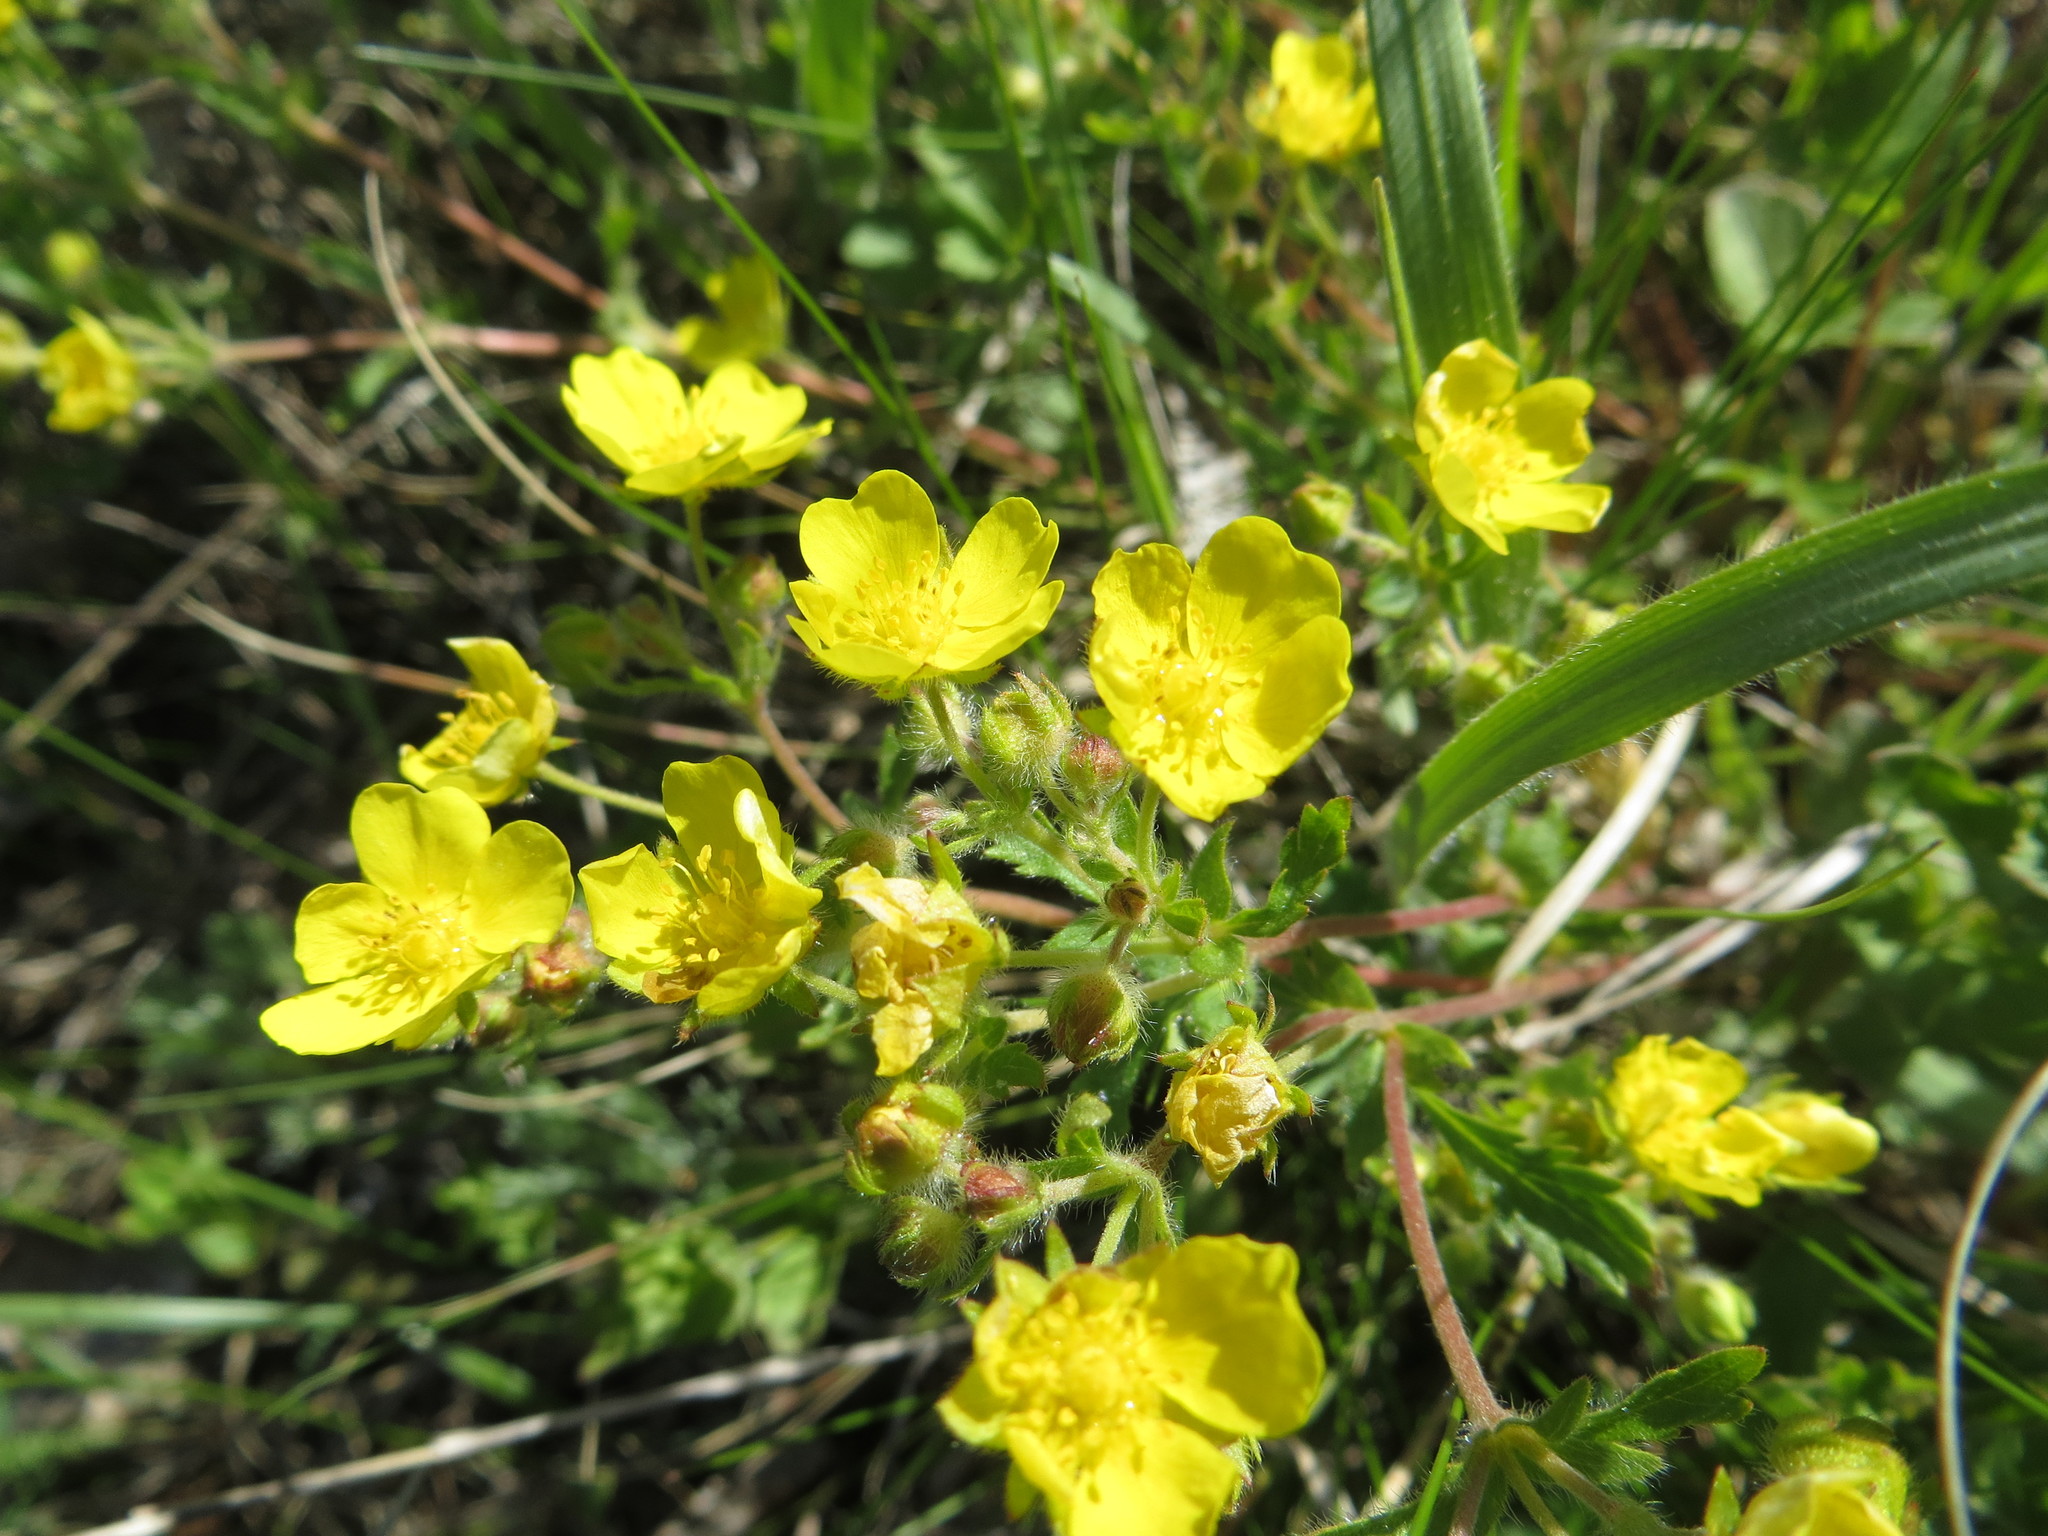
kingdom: Plantae
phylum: Tracheophyta
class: Magnoliopsida
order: Rosales
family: Rosaceae
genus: Potentilla
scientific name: Potentilla humifusa
